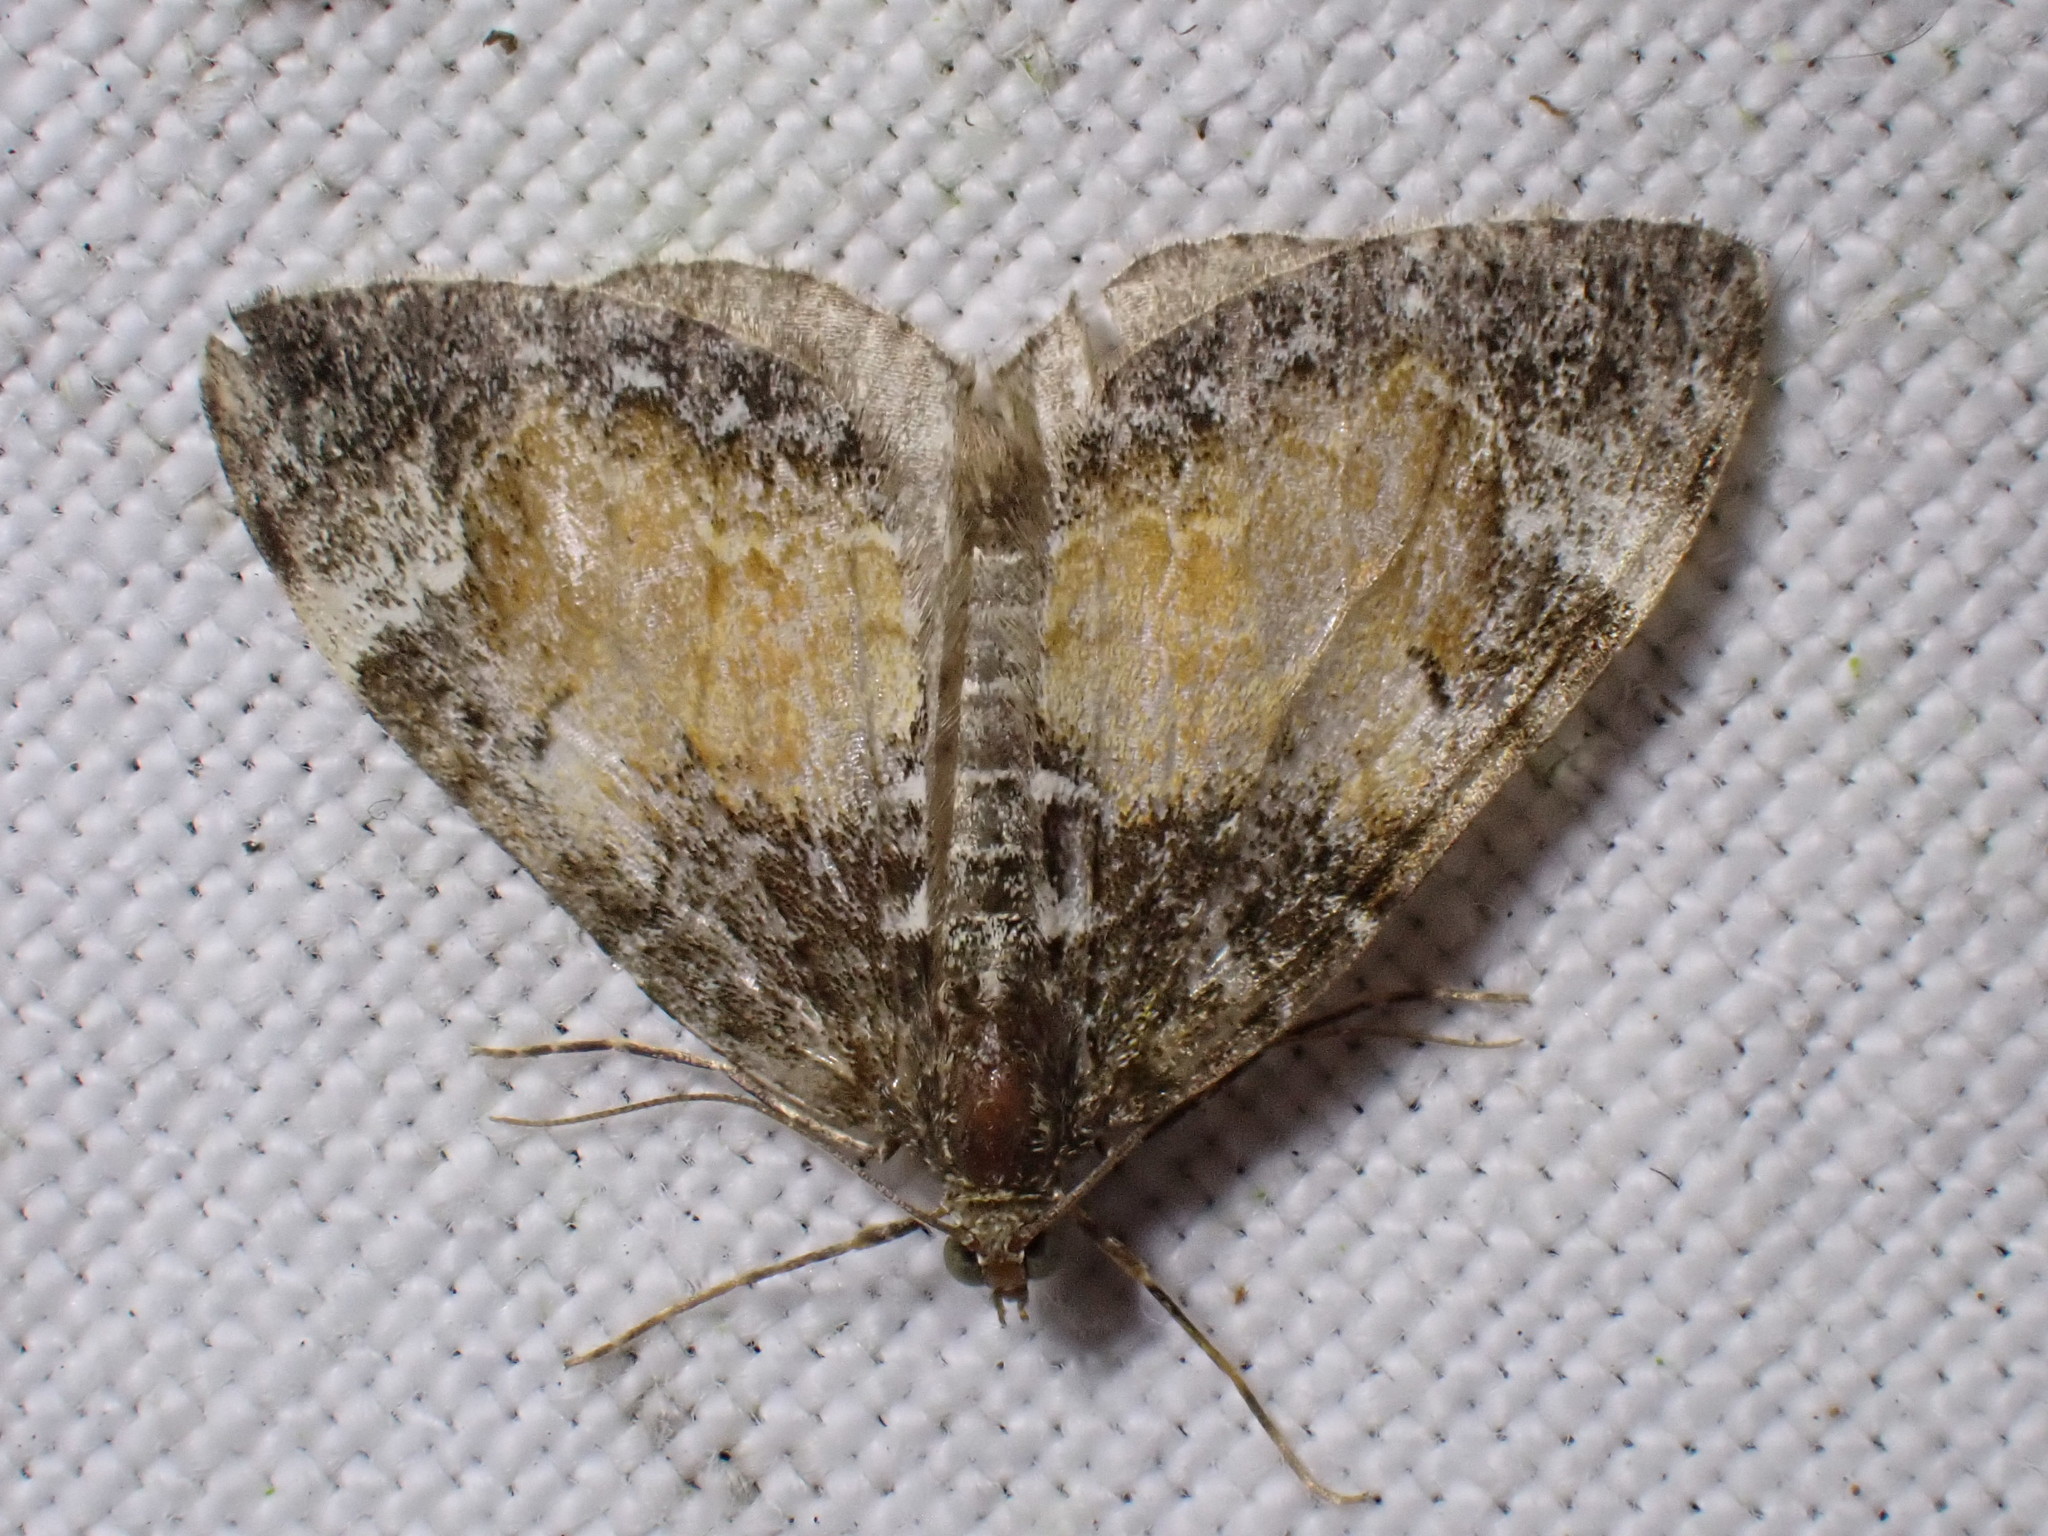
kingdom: Animalia
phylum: Arthropoda
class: Insecta
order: Lepidoptera
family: Geometridae
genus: Dysstroma
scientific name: Dysstroma truncata
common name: Common marbled carpet
